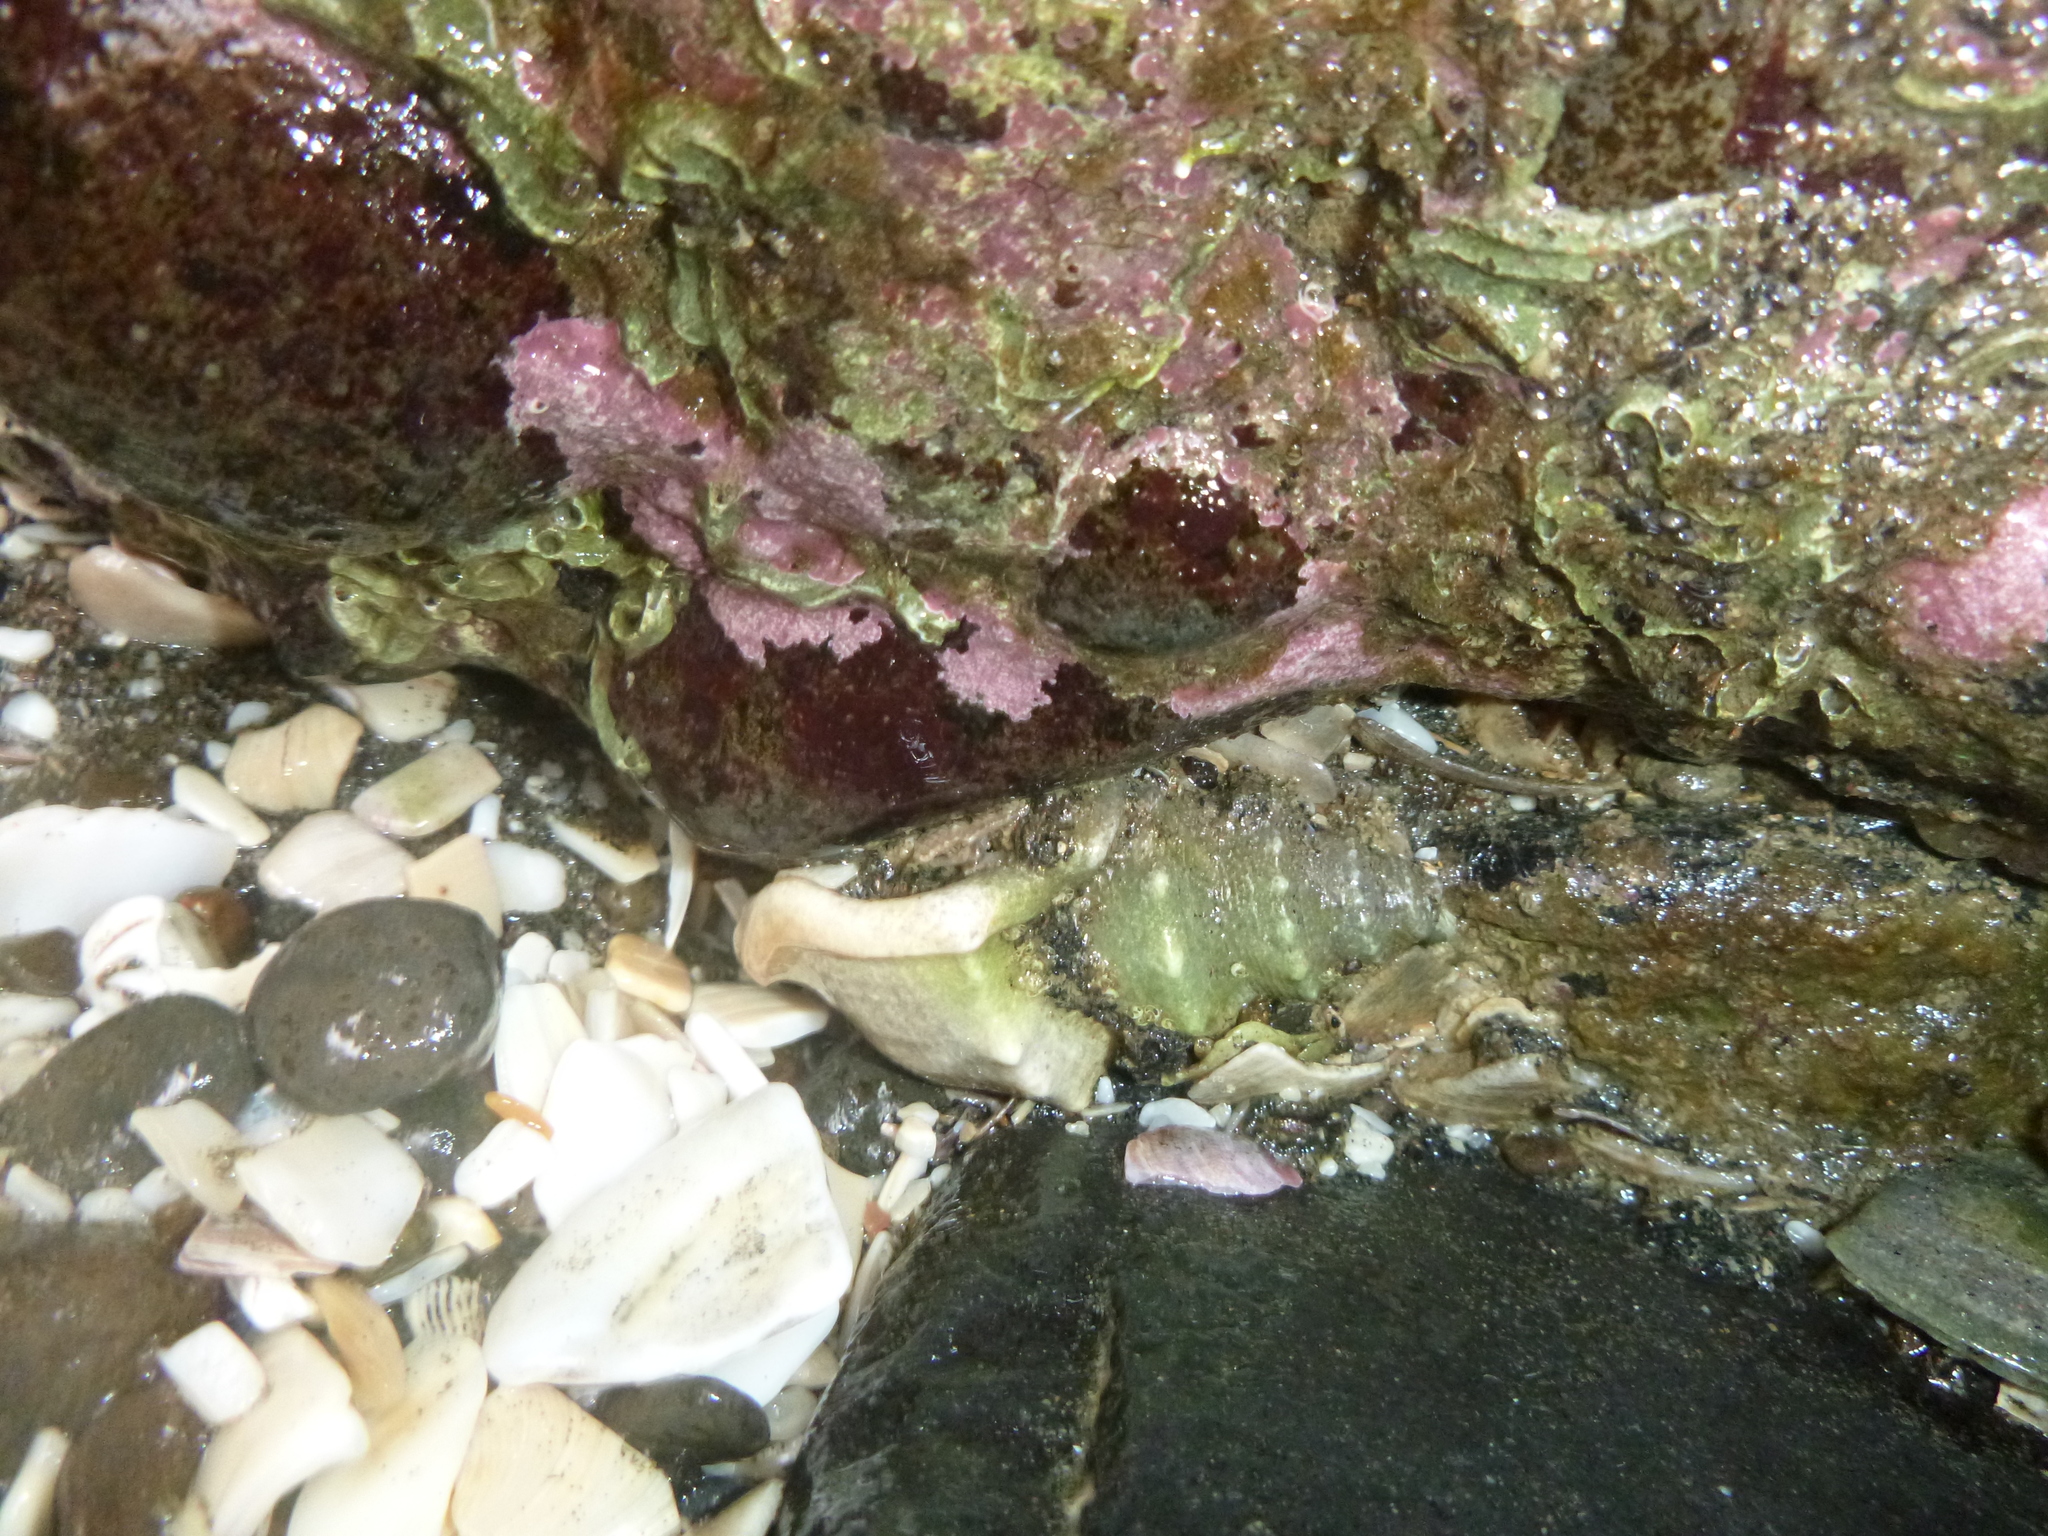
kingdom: Animalia
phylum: Mollusca
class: Gastropoda
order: Littorinimorpha
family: Struthiolariidae
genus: Struthiolaria
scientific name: Struthiolaria papulosa
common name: Large ostrich foot
